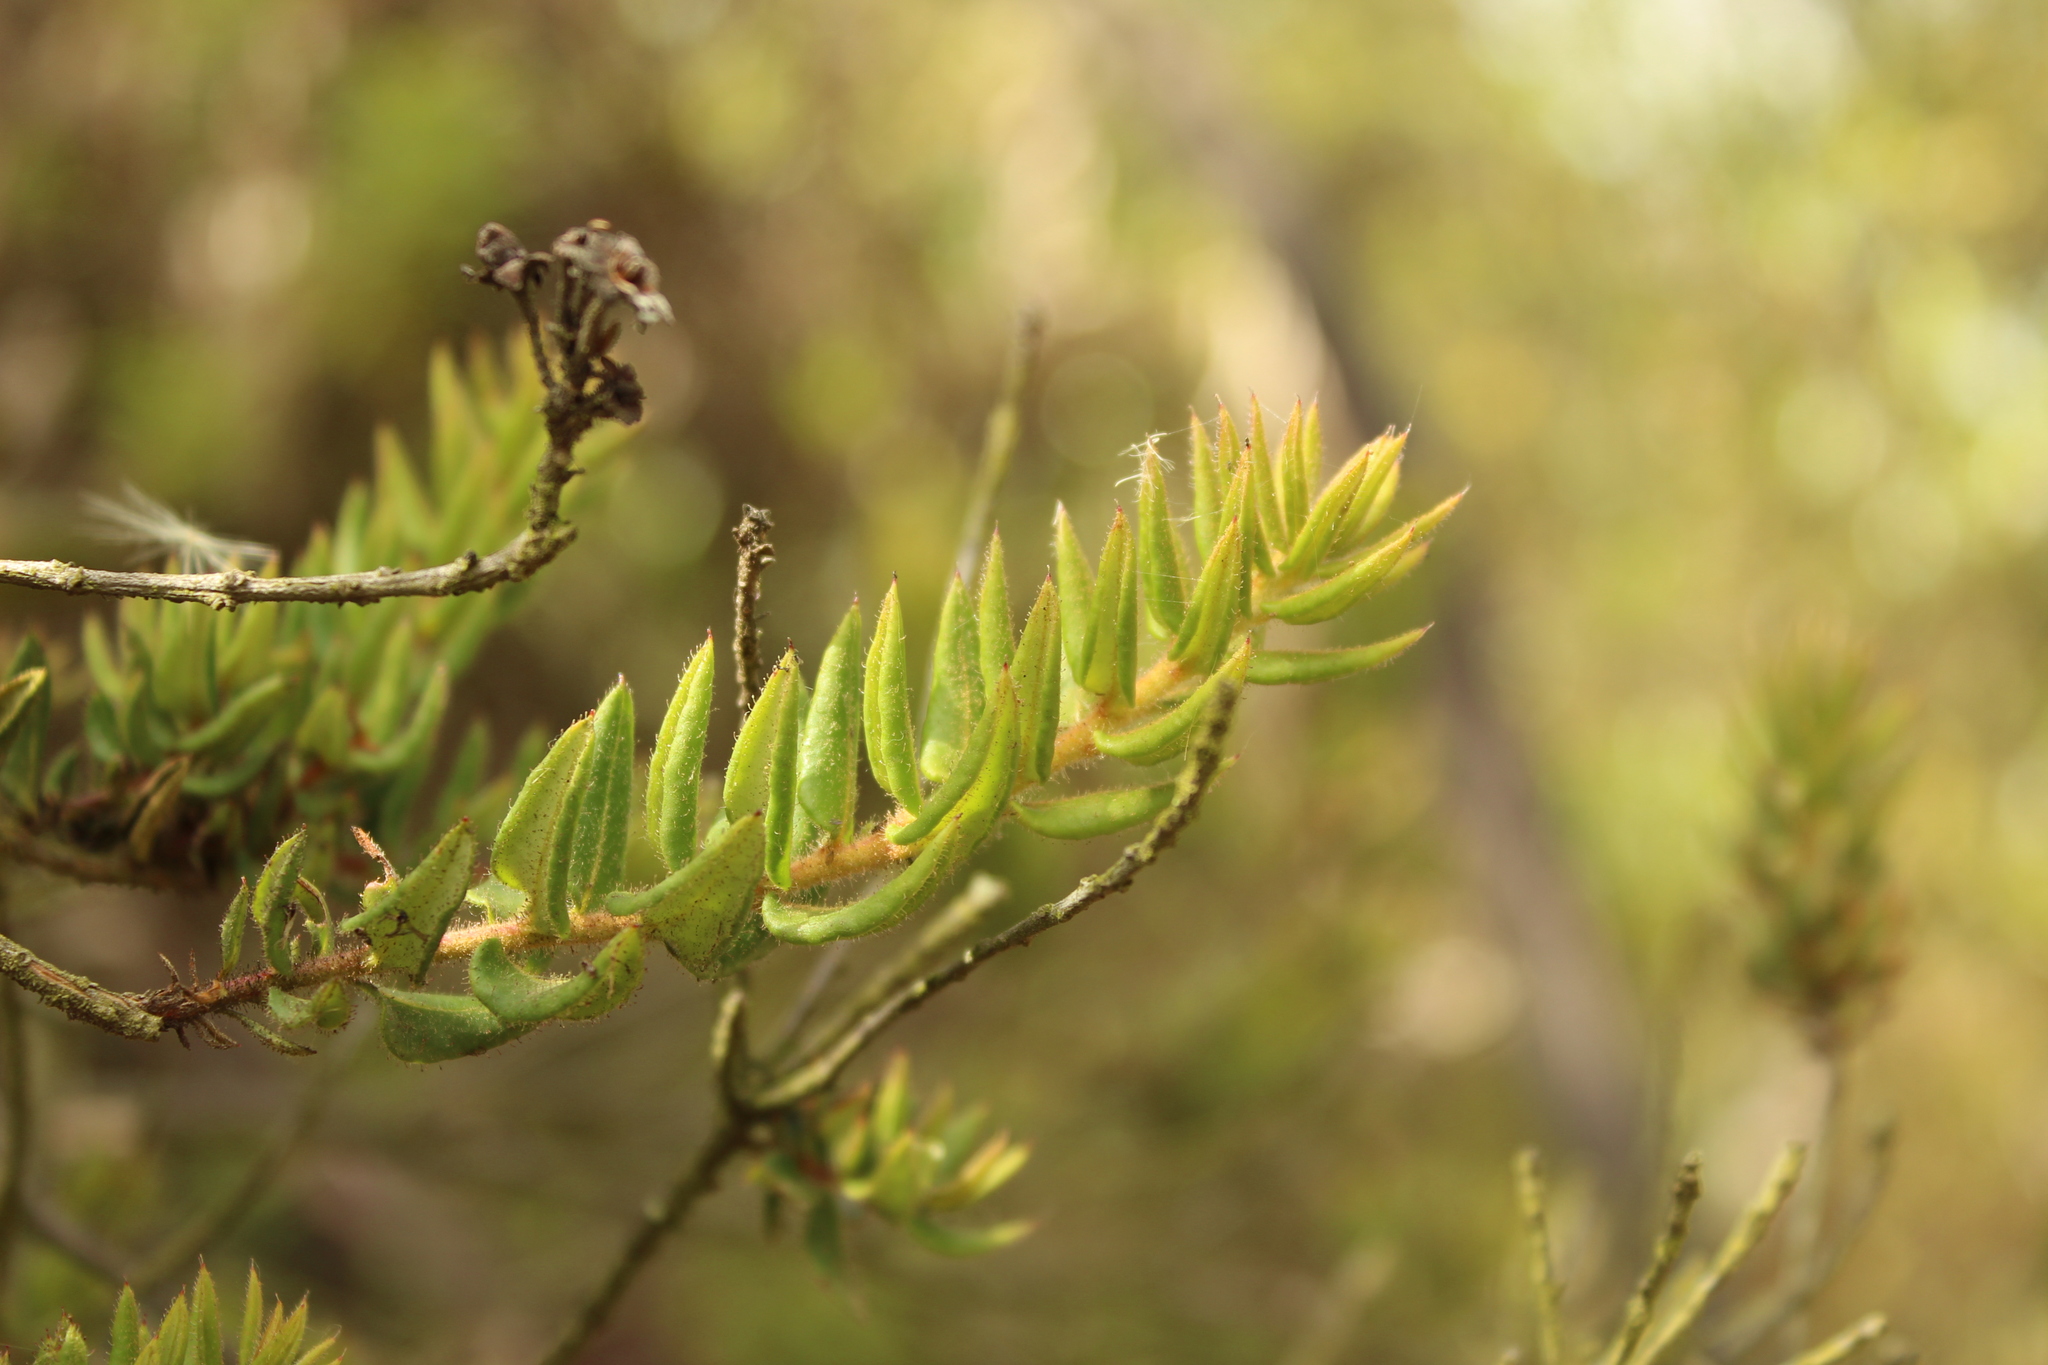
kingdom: Plantae
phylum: Tracheophyta
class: Magnoliopsida
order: Ericales
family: Ericaceae
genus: Bejaria
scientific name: Bejaria resinosa
